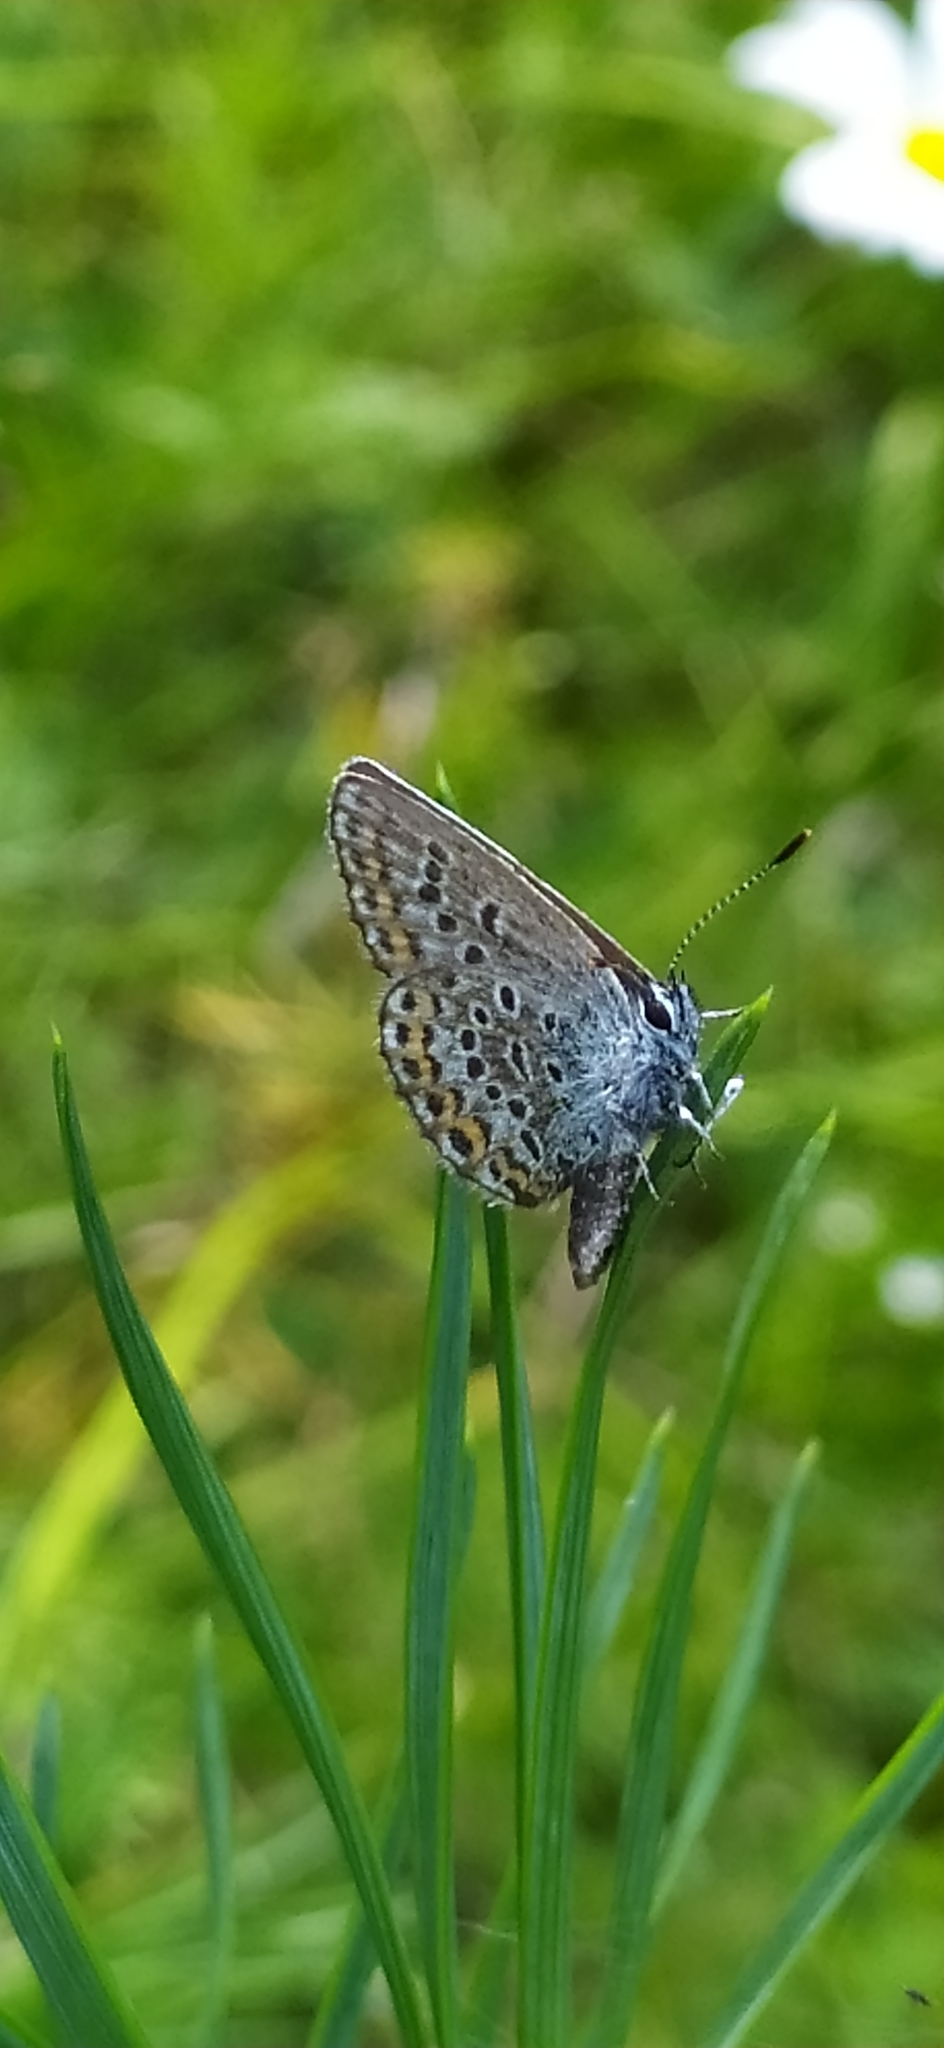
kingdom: Animalia
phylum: Arthropoda
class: Insecta
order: Lepidoptera
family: Lycaenidae
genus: Plebejus
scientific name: Plebejus argus
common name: Silver-studded blue
